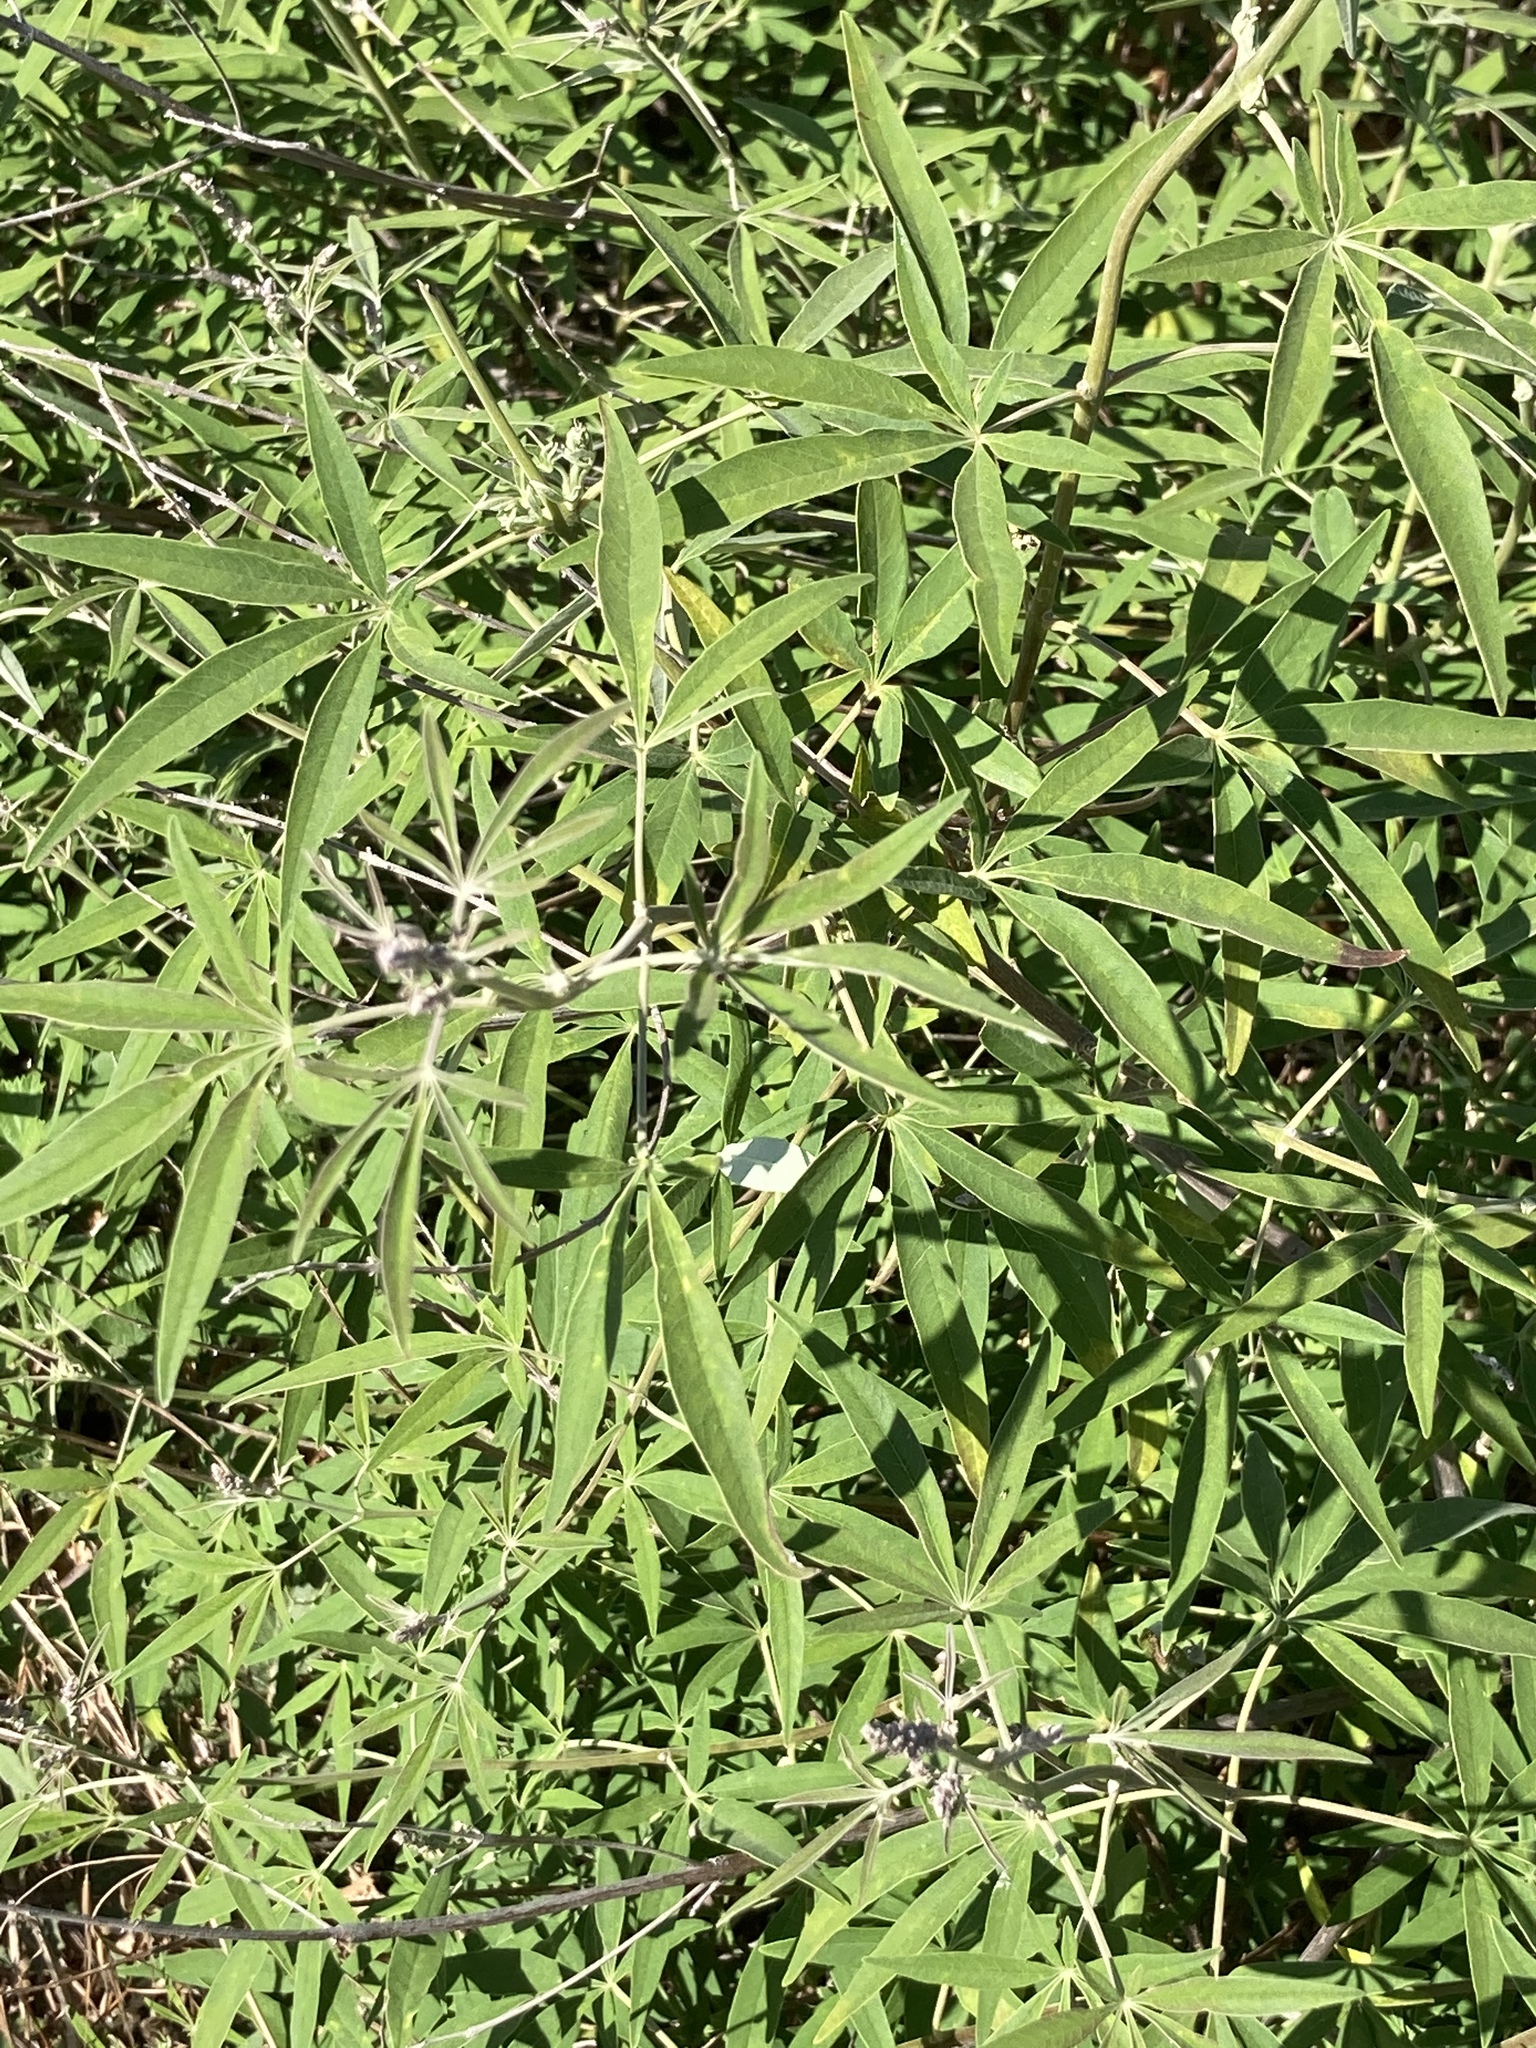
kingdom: Plantae
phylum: Tracheophyta
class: Magnoliopsida
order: Lamiales
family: Lamiaceae
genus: Vitex
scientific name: Vitex agnus-castus
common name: Chasteberry
